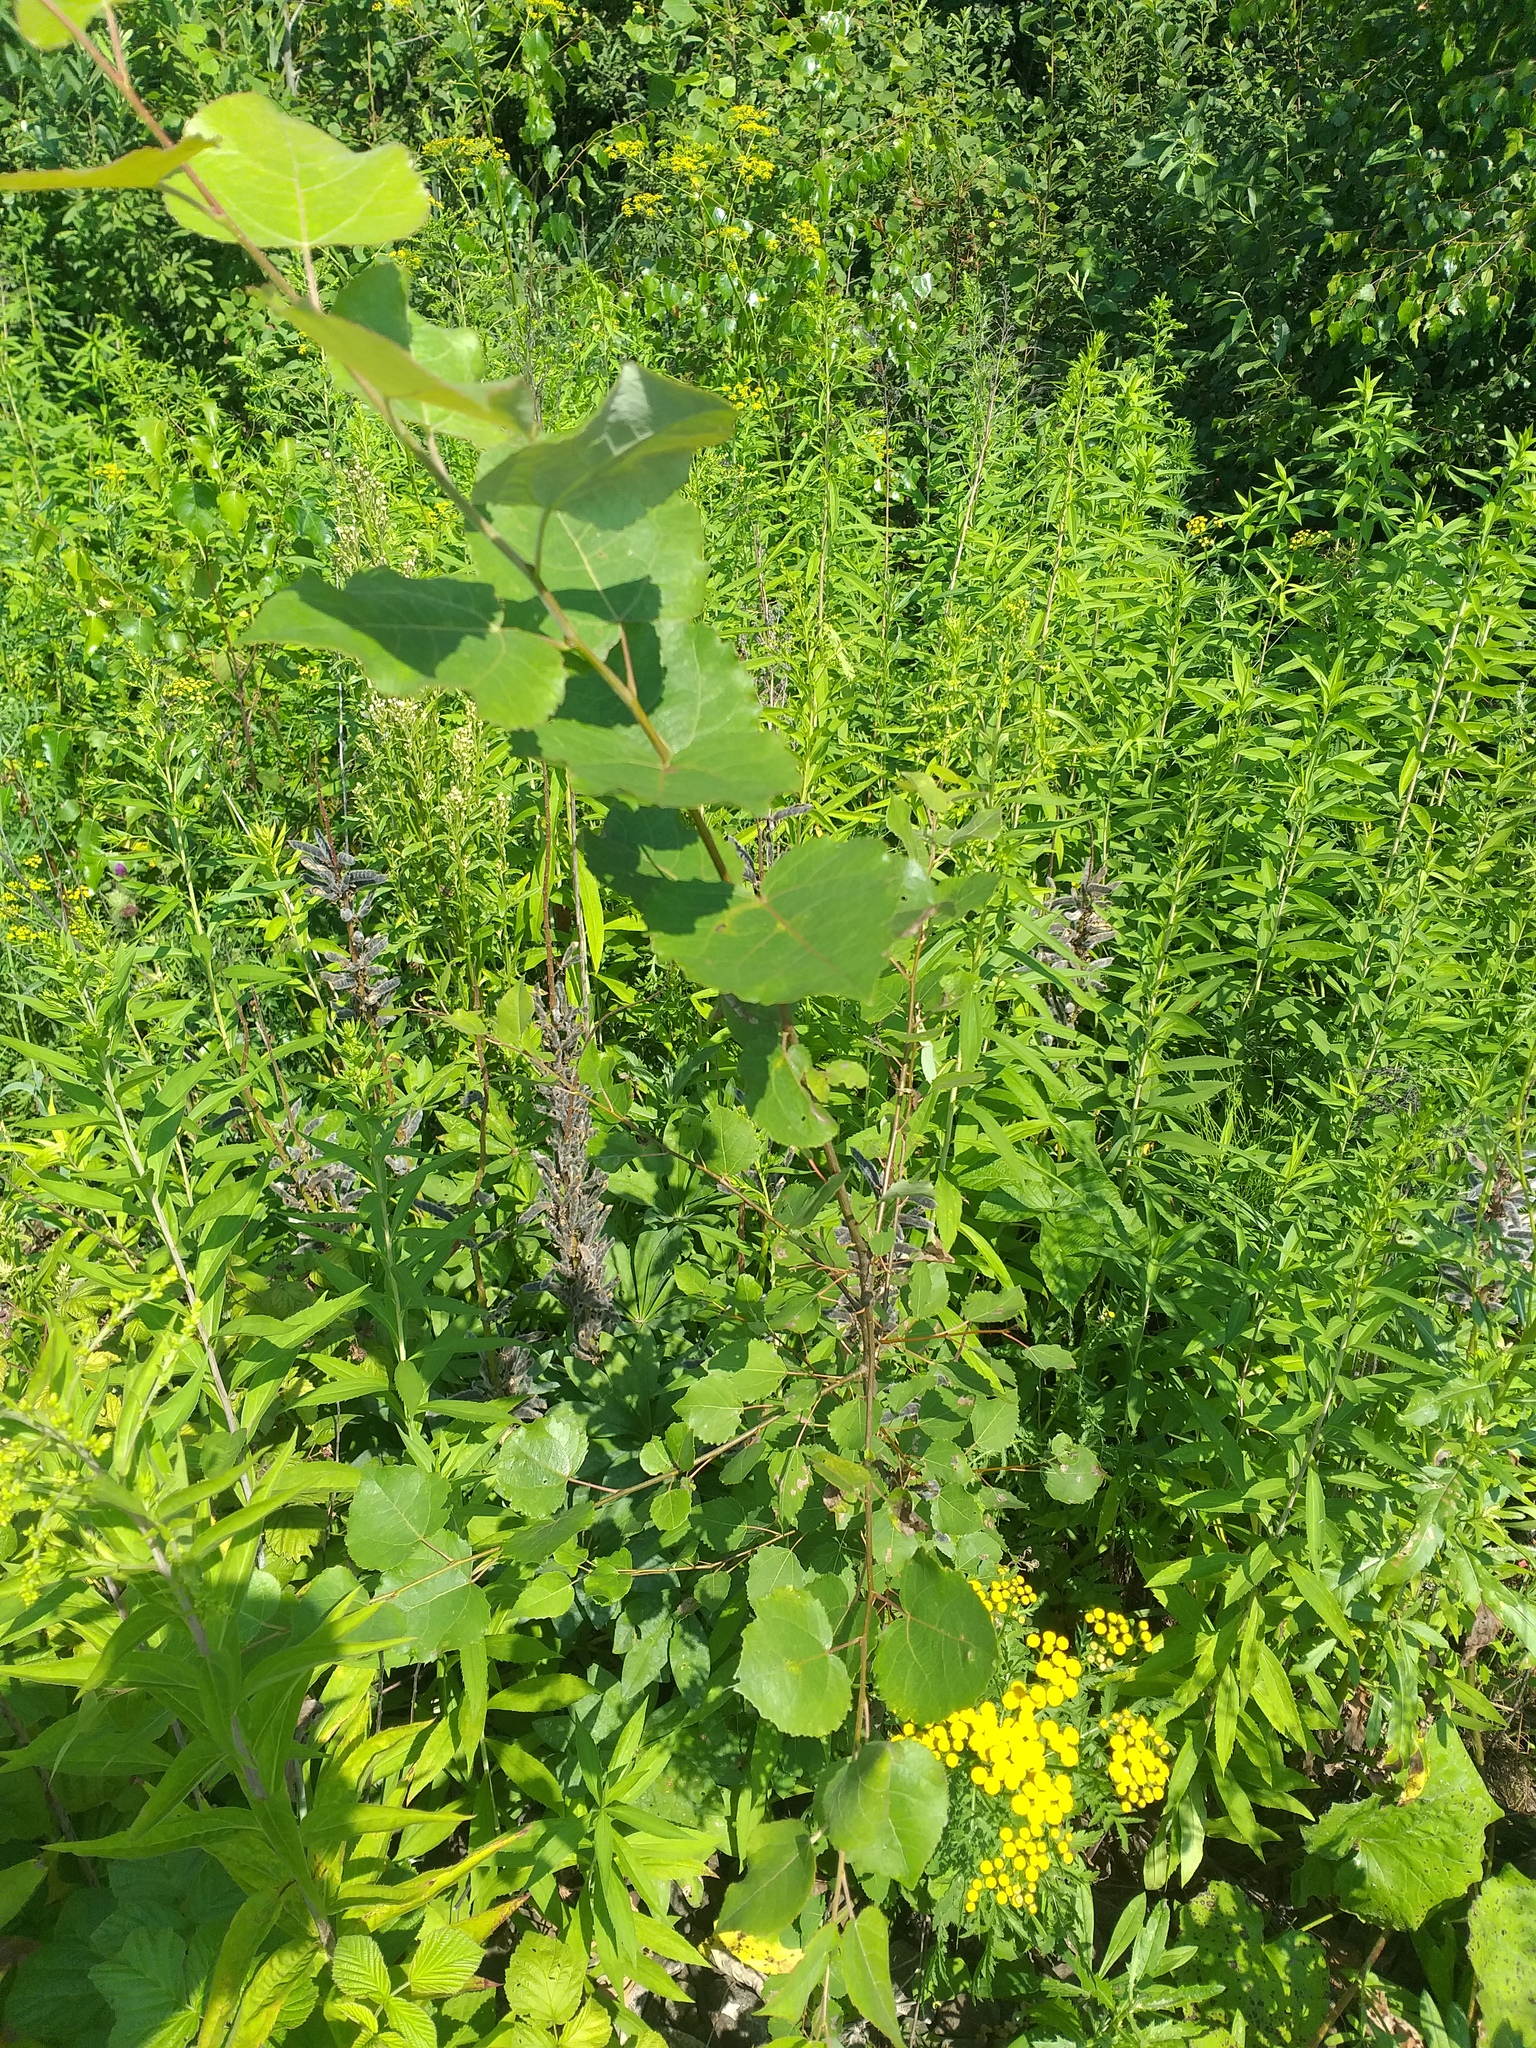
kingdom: Plantae
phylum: Tracheophyta
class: Magnoliopsida
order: Malpighiales
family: Salicaceae
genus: Populus
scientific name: Populus tremula
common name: European aspen
